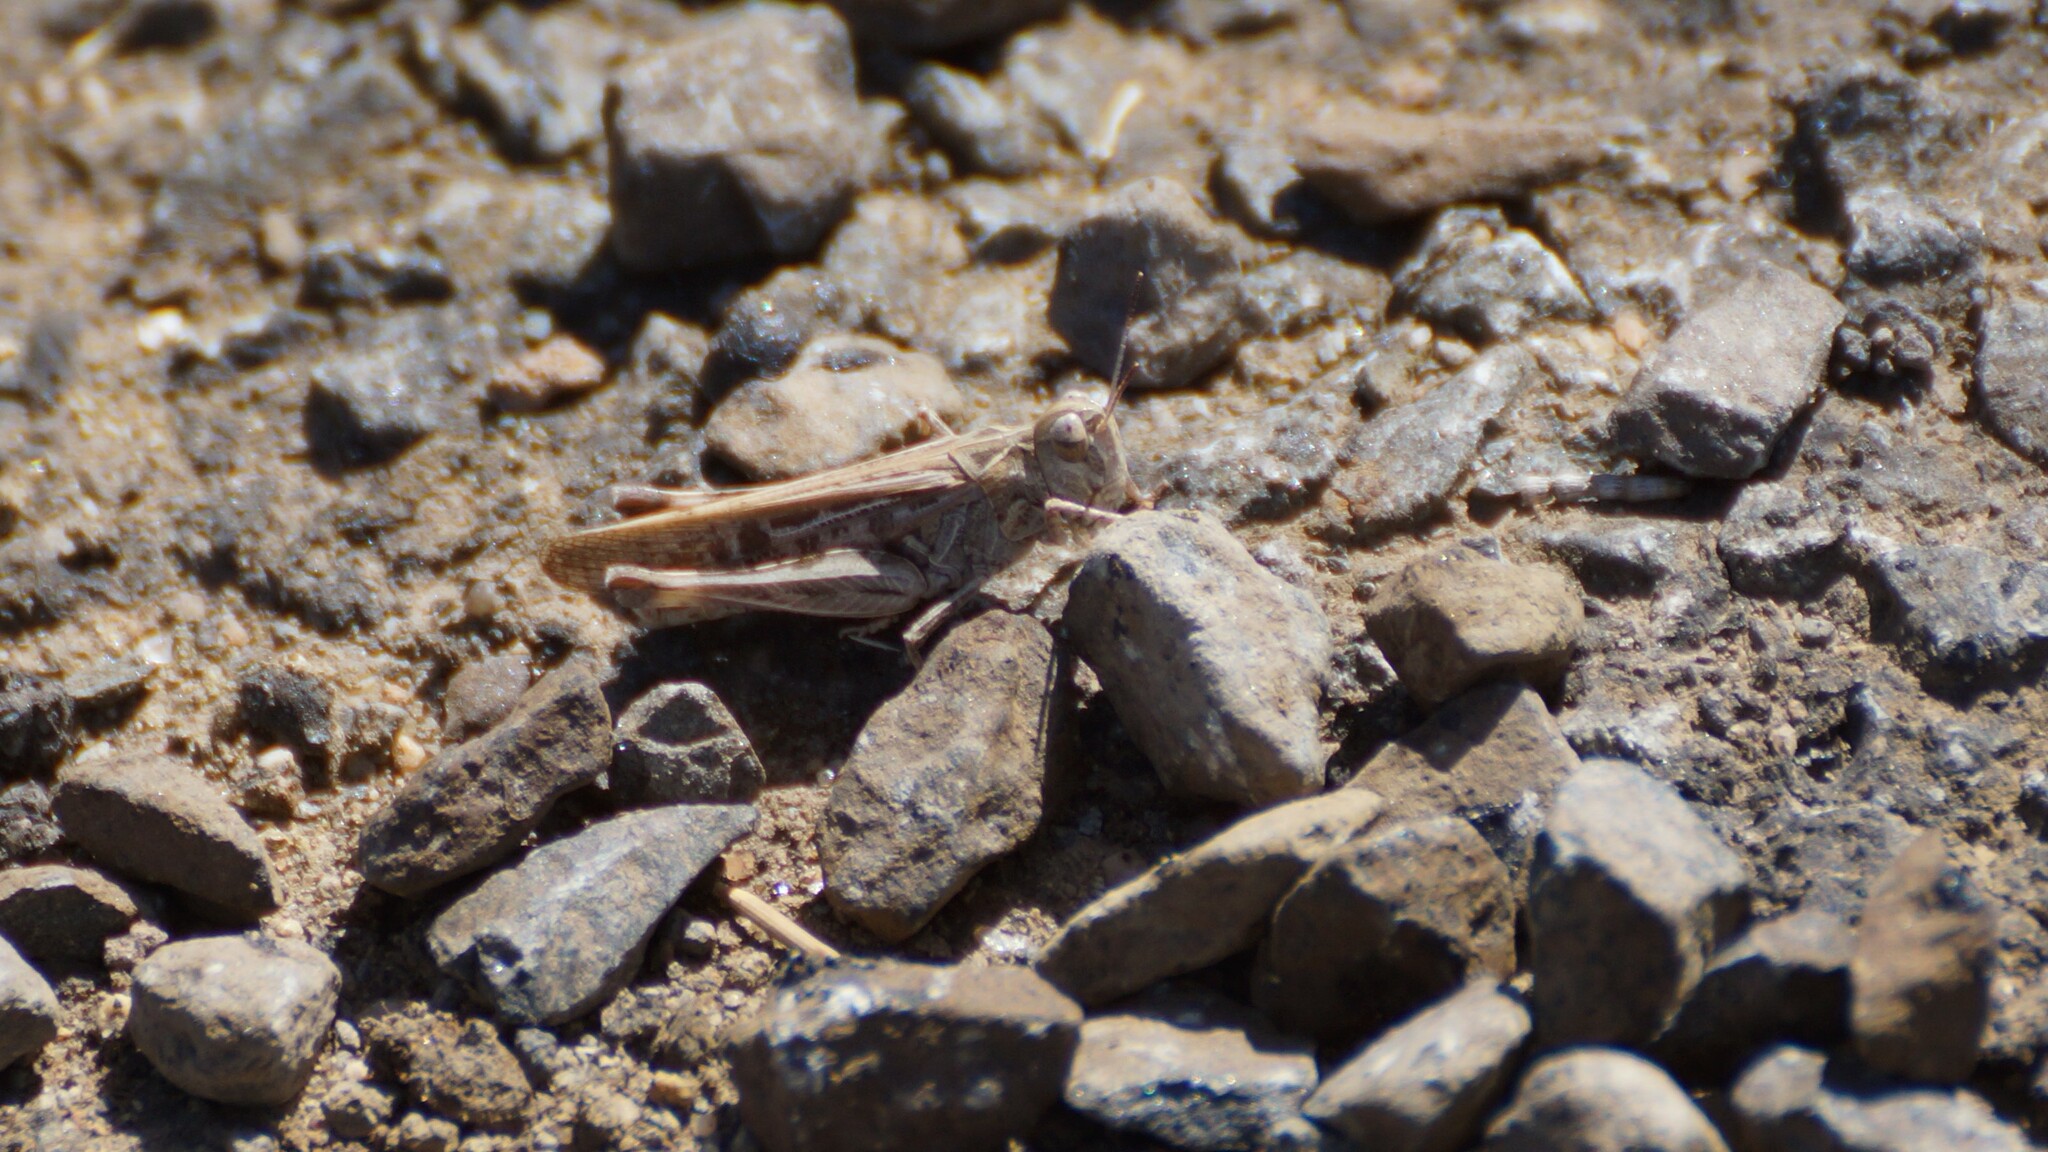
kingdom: Animalia
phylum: Arthropoda
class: Insecta
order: Orthoptera
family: Acrididae
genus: Austroicetes
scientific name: Austroicetes vulgaris
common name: Southeastern austroicetes
